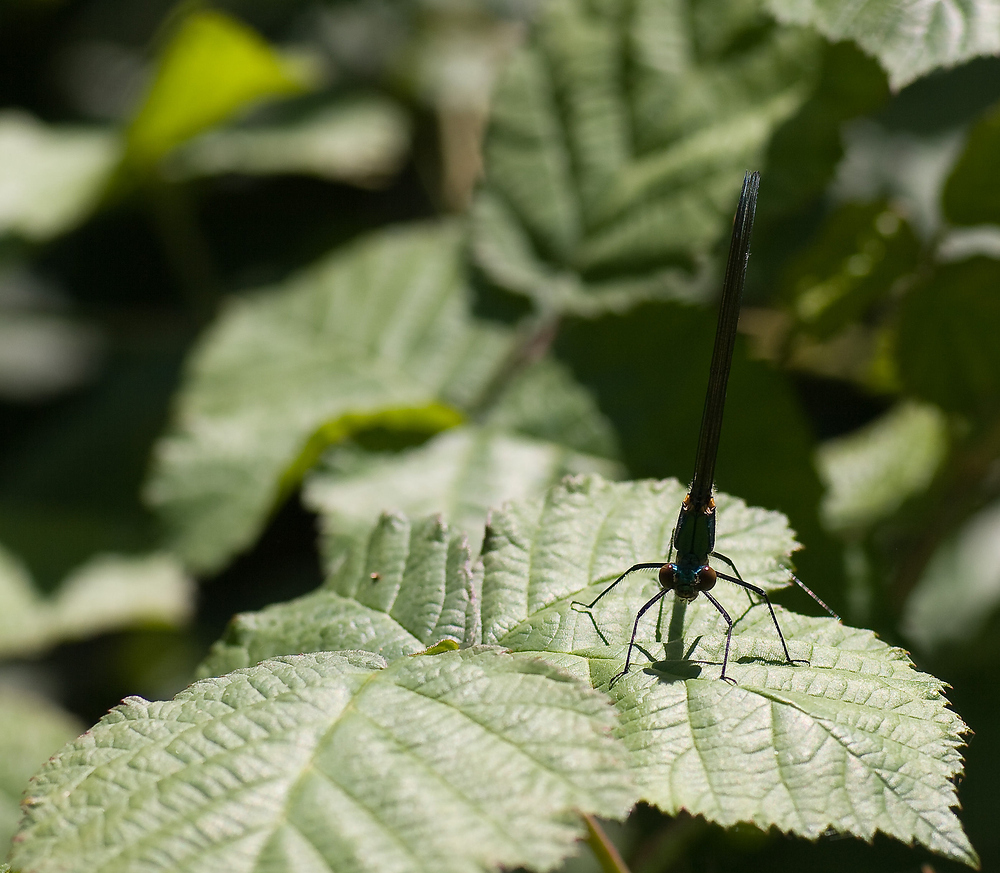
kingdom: Animalia
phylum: Arthropoda
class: Insecta
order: Odonata
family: Calopterygidae
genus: Calopteryx
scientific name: Calopteryx xanthostoma
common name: Western demoiselle
